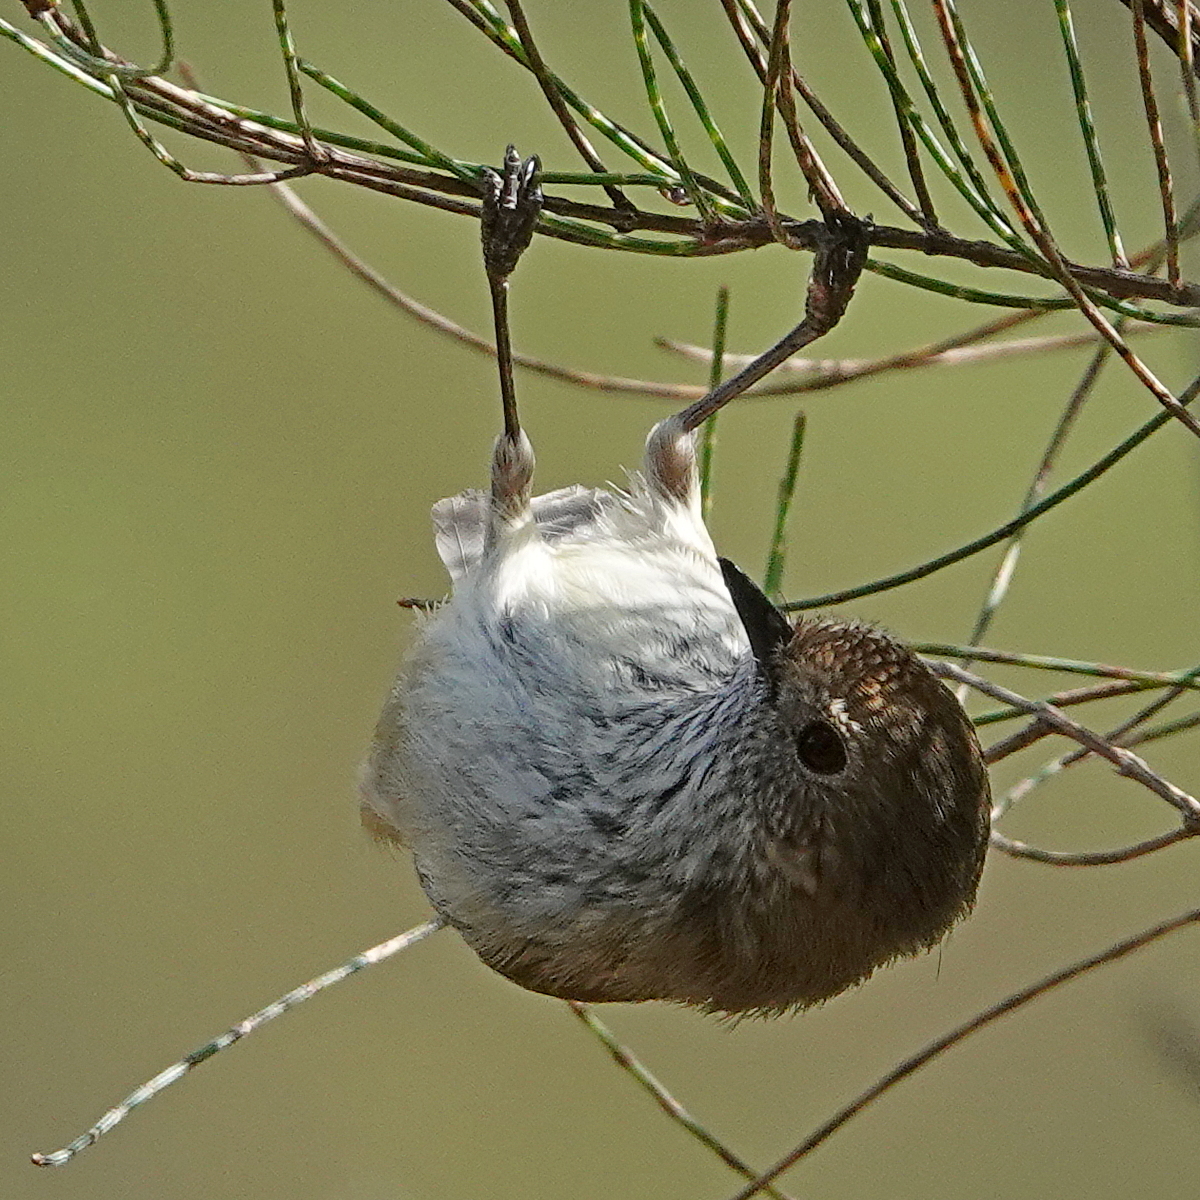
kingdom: Animalia
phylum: Chordata
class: Aves
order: Passeriformes
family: Acanthizidae
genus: Acanthiza
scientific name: Acanthiza pusilla
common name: Brown thornbill
